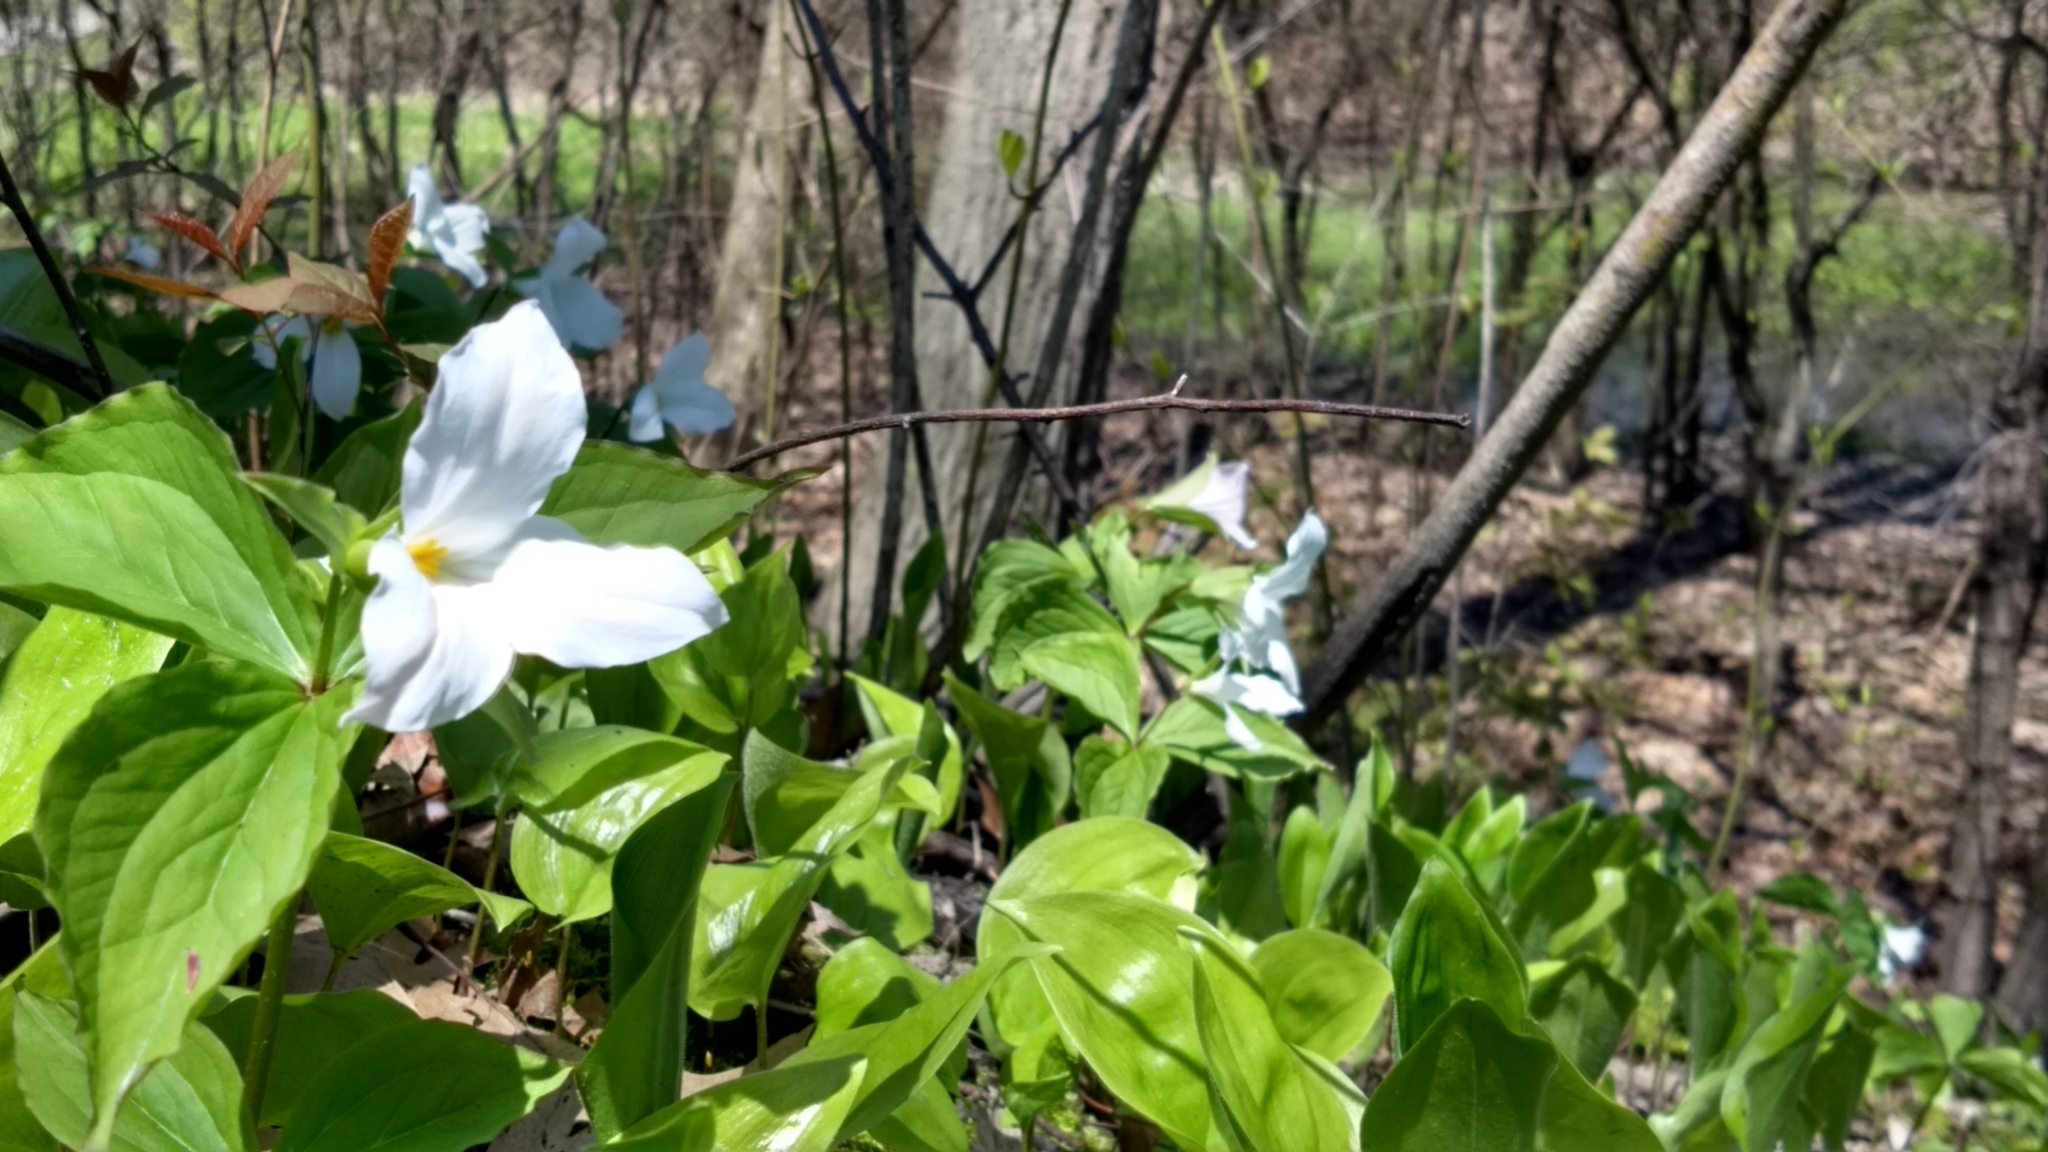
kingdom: Plantae
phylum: Tracheophyta
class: Liliopsida
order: Liliales
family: Melanthiaceae
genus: Trillium
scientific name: Trillium grandiflorum
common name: Great white trillium
